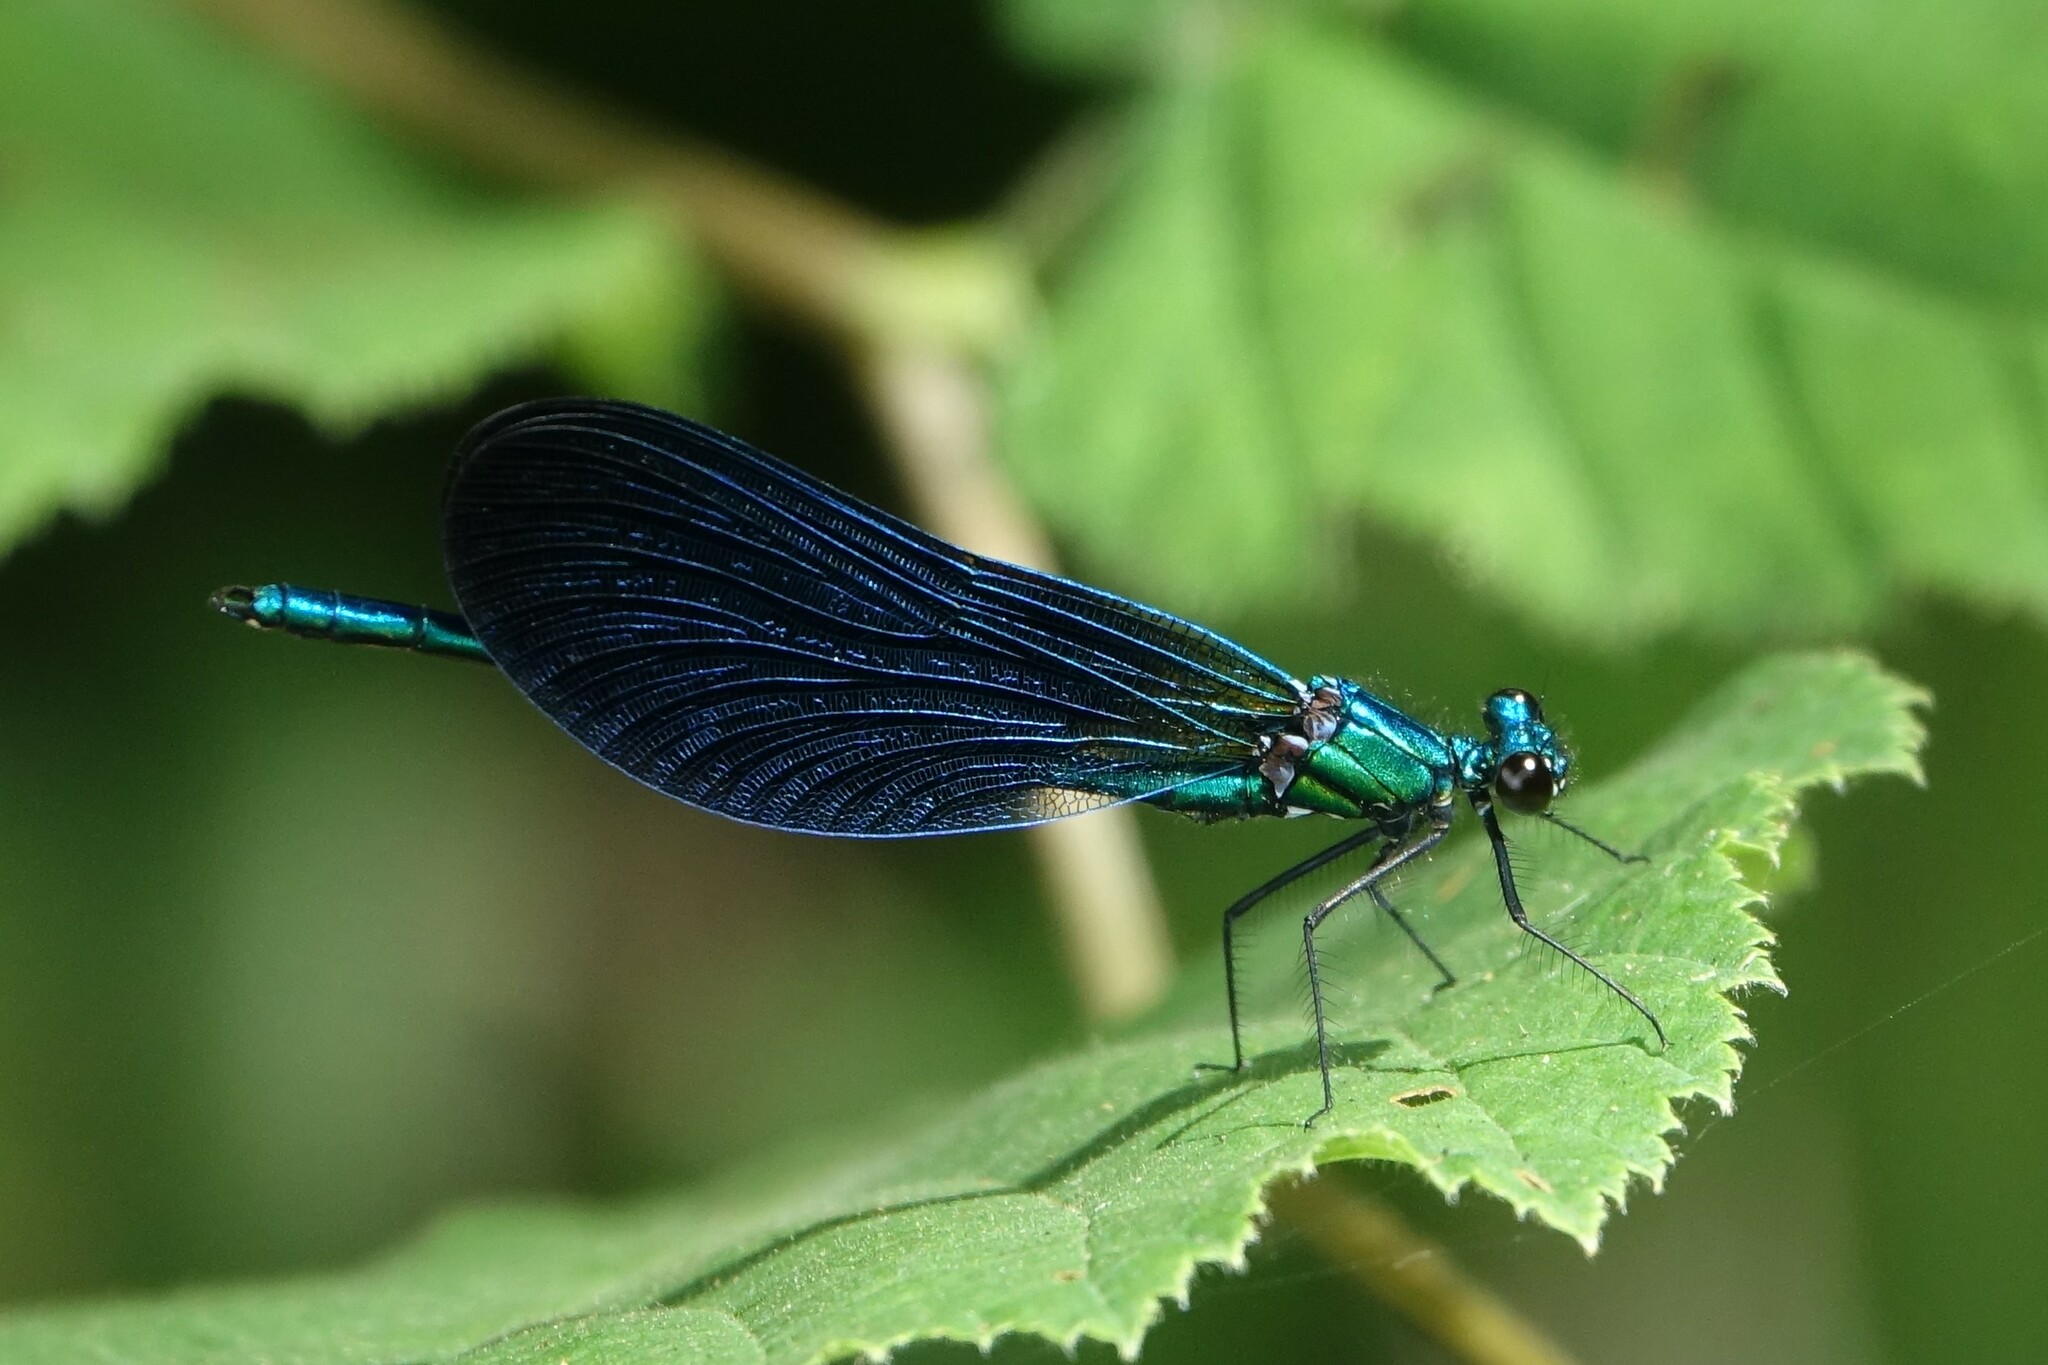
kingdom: Animalia
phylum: Arthropoda
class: Insecta
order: Odonata
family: Calopterygidae
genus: Calopteryx
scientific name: Calopteryx virgo
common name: Beautiful demoiselle
